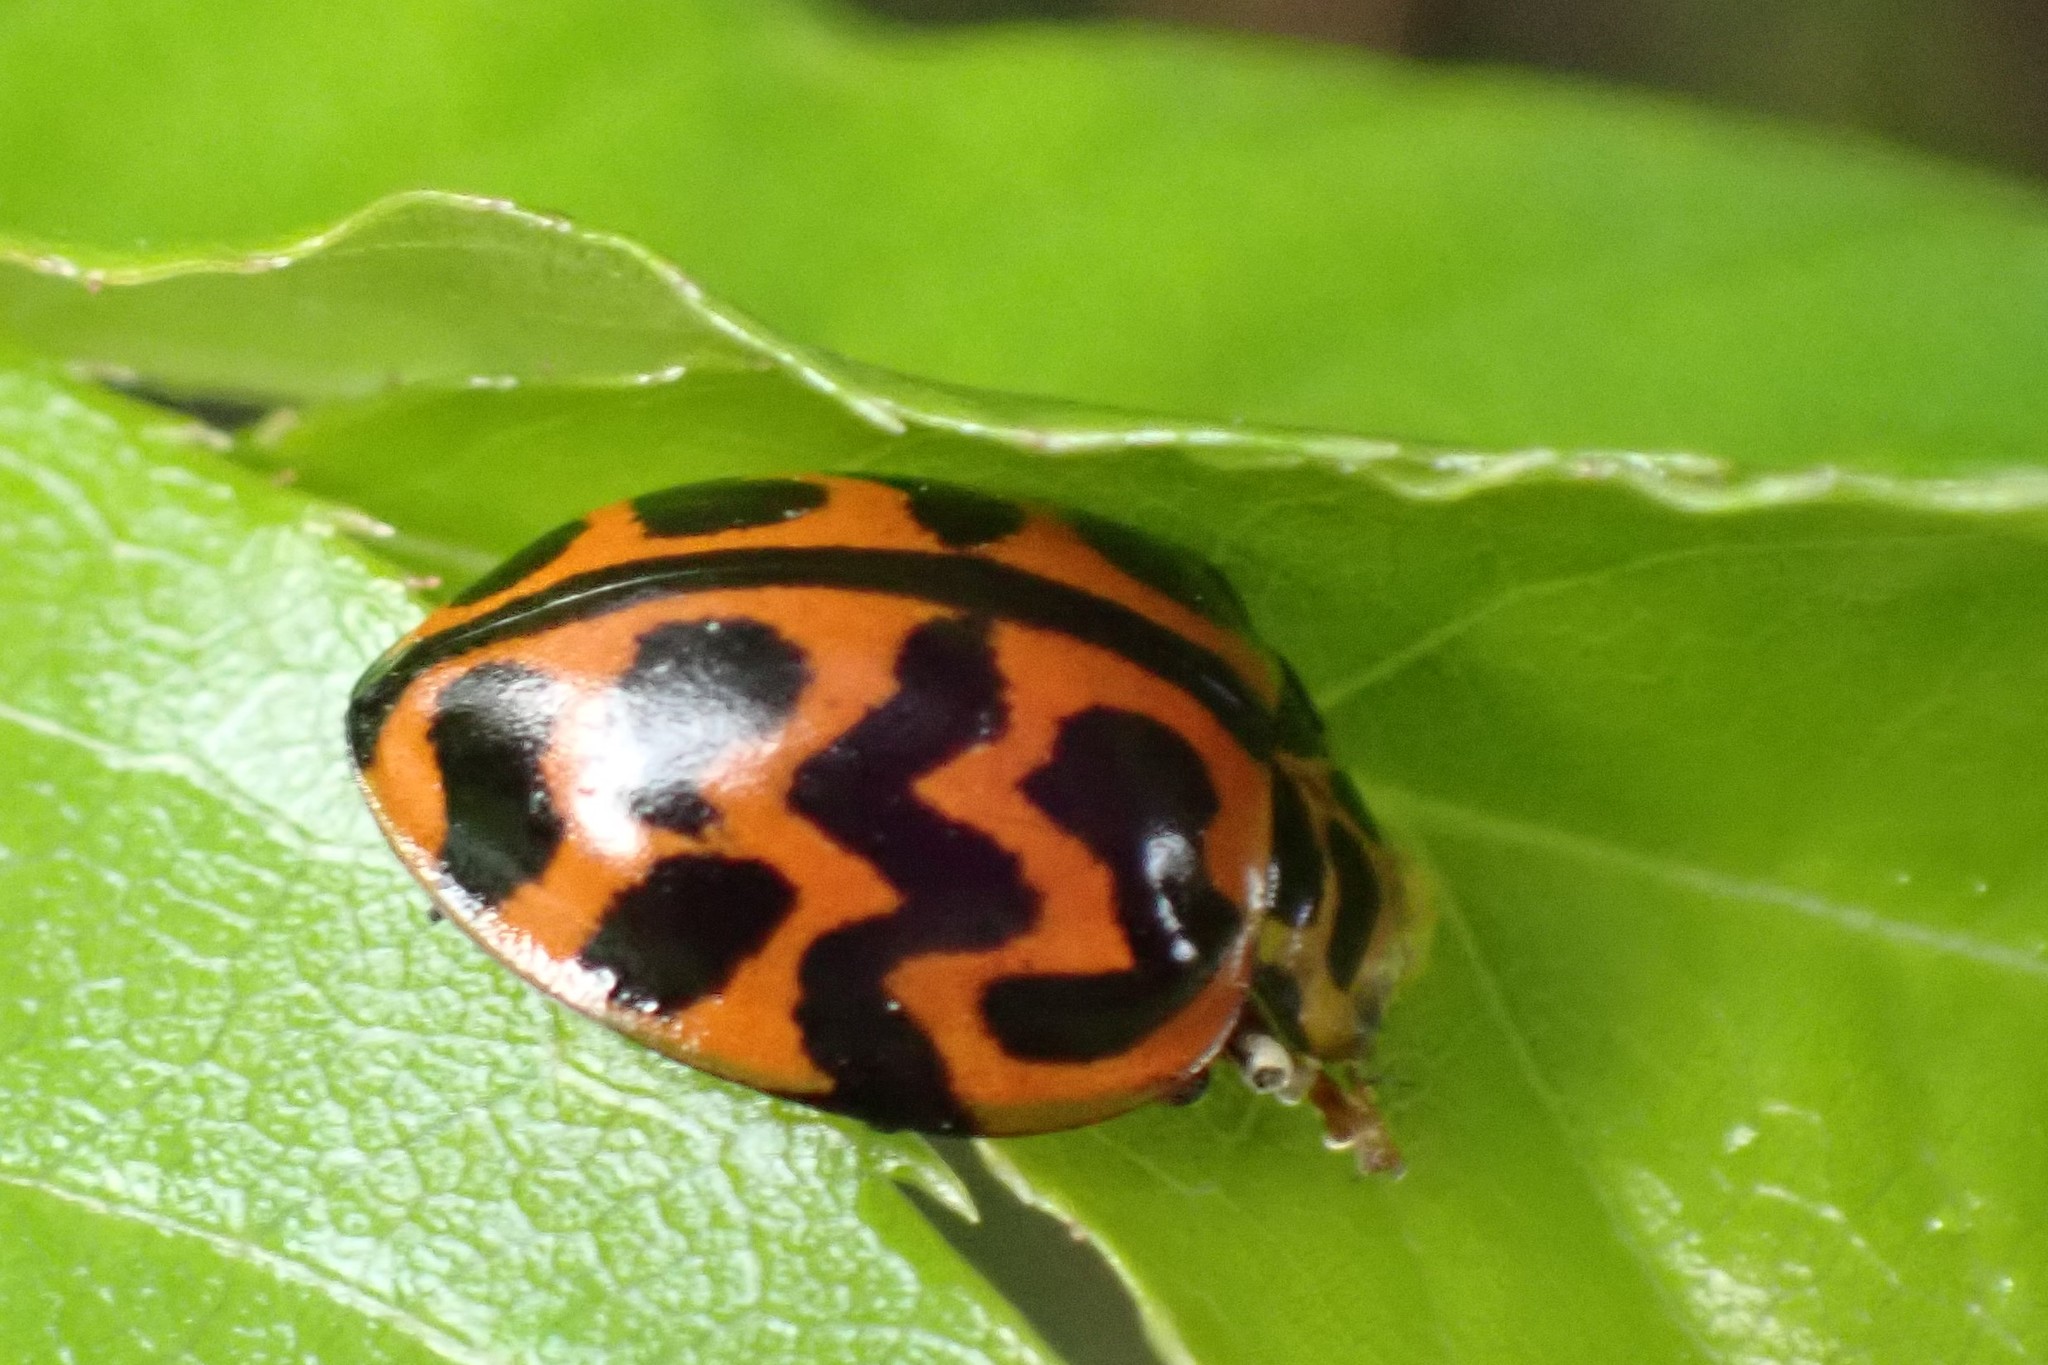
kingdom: Animalia
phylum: Arthropoda
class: Insecta
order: Coleoptera
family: Coccinellidae
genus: Cleobora
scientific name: Cleobora
